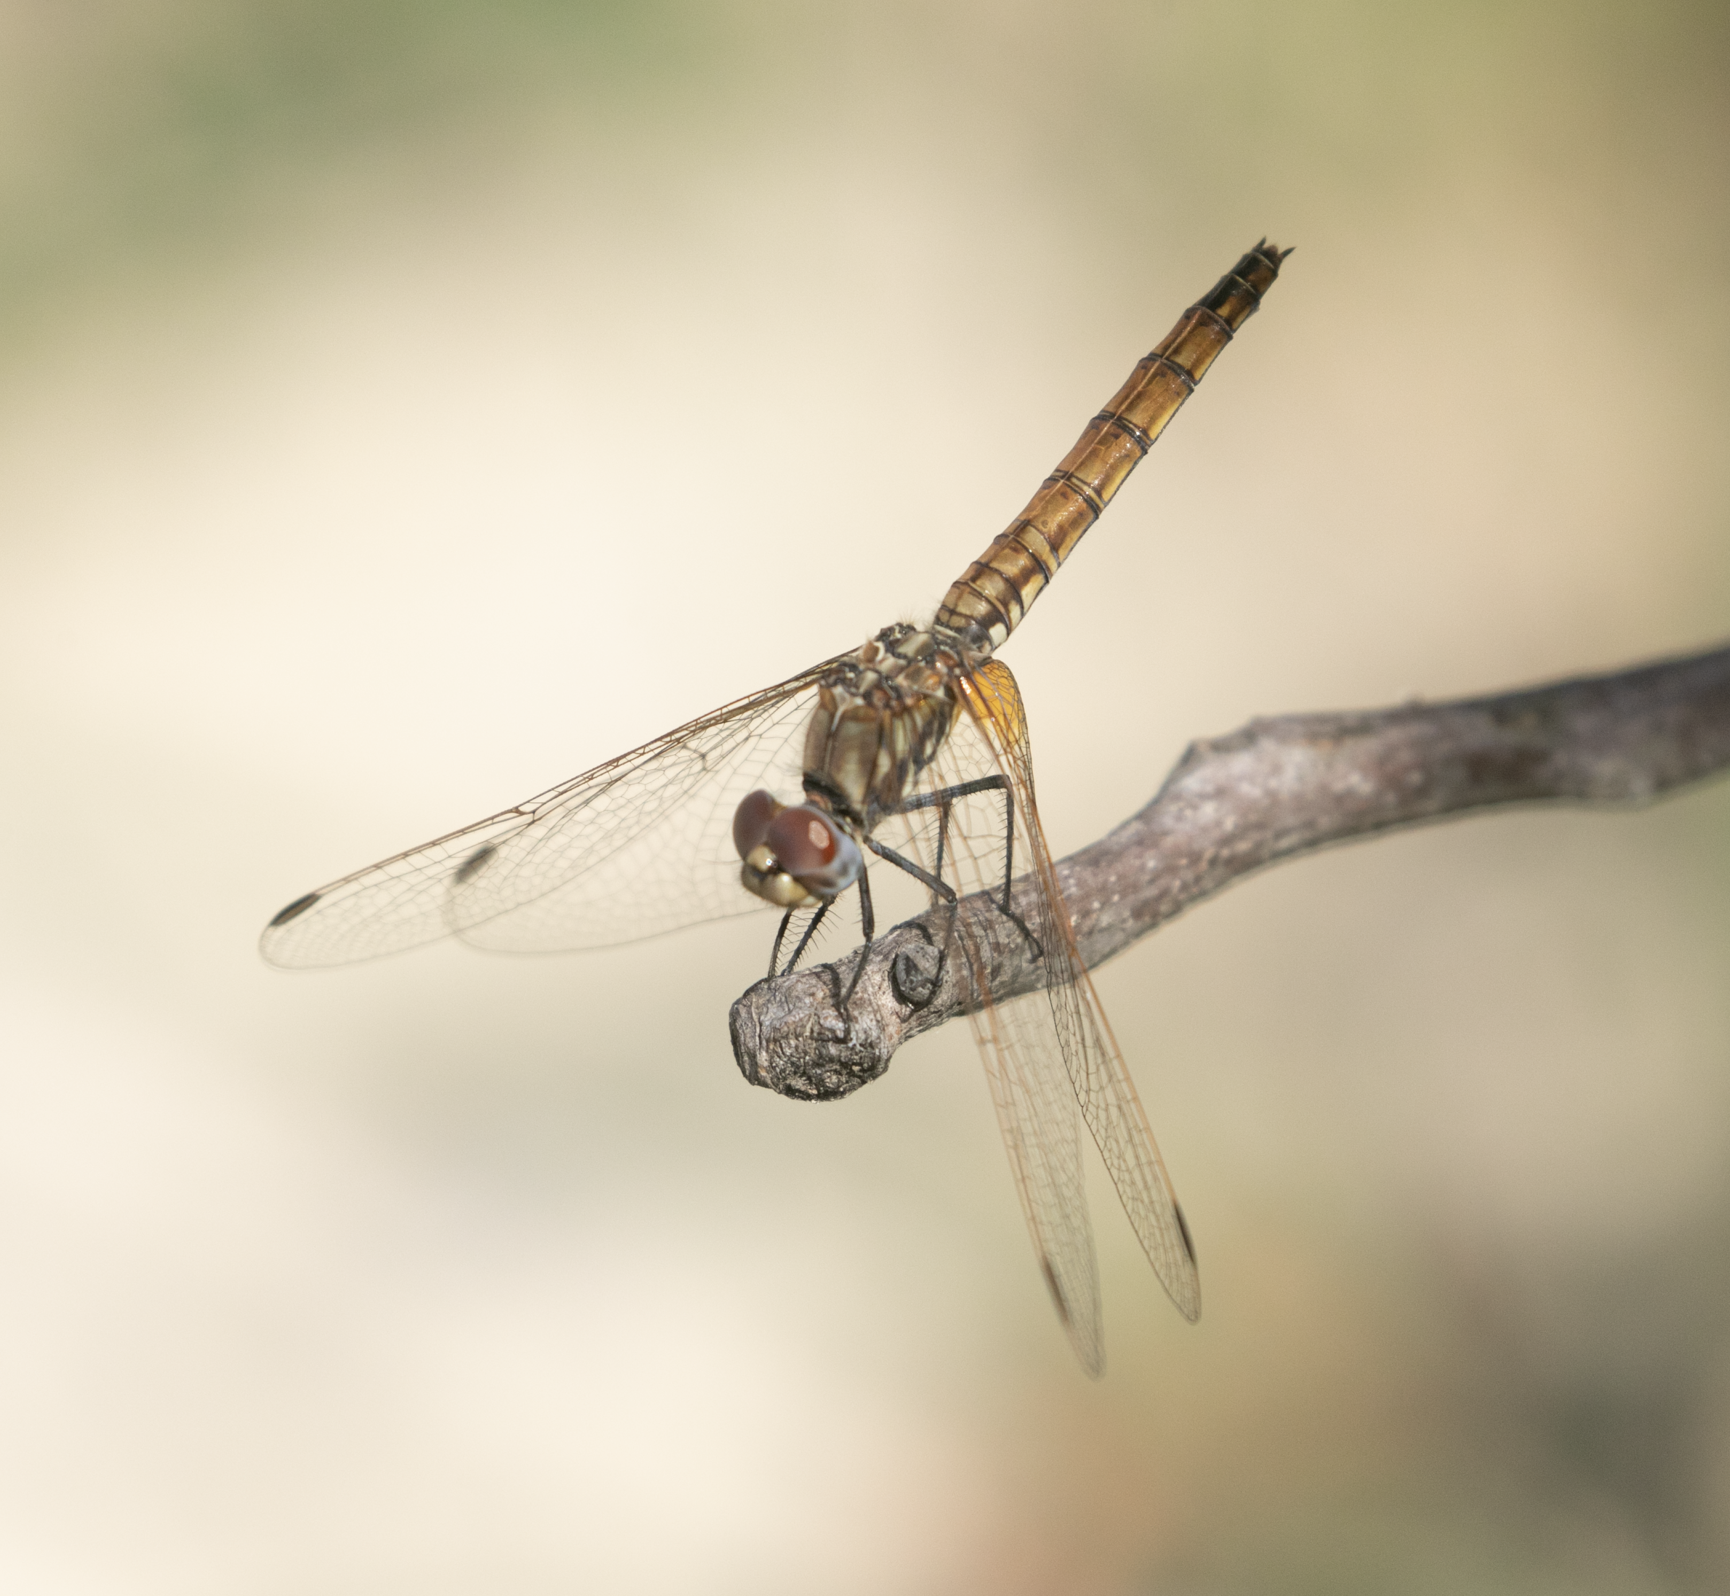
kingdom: Animalia
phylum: Arthropoda
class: Insecta
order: Odonata
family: Libellulidae
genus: Trithemis
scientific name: Trithemis annulata
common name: Violet dropwing
